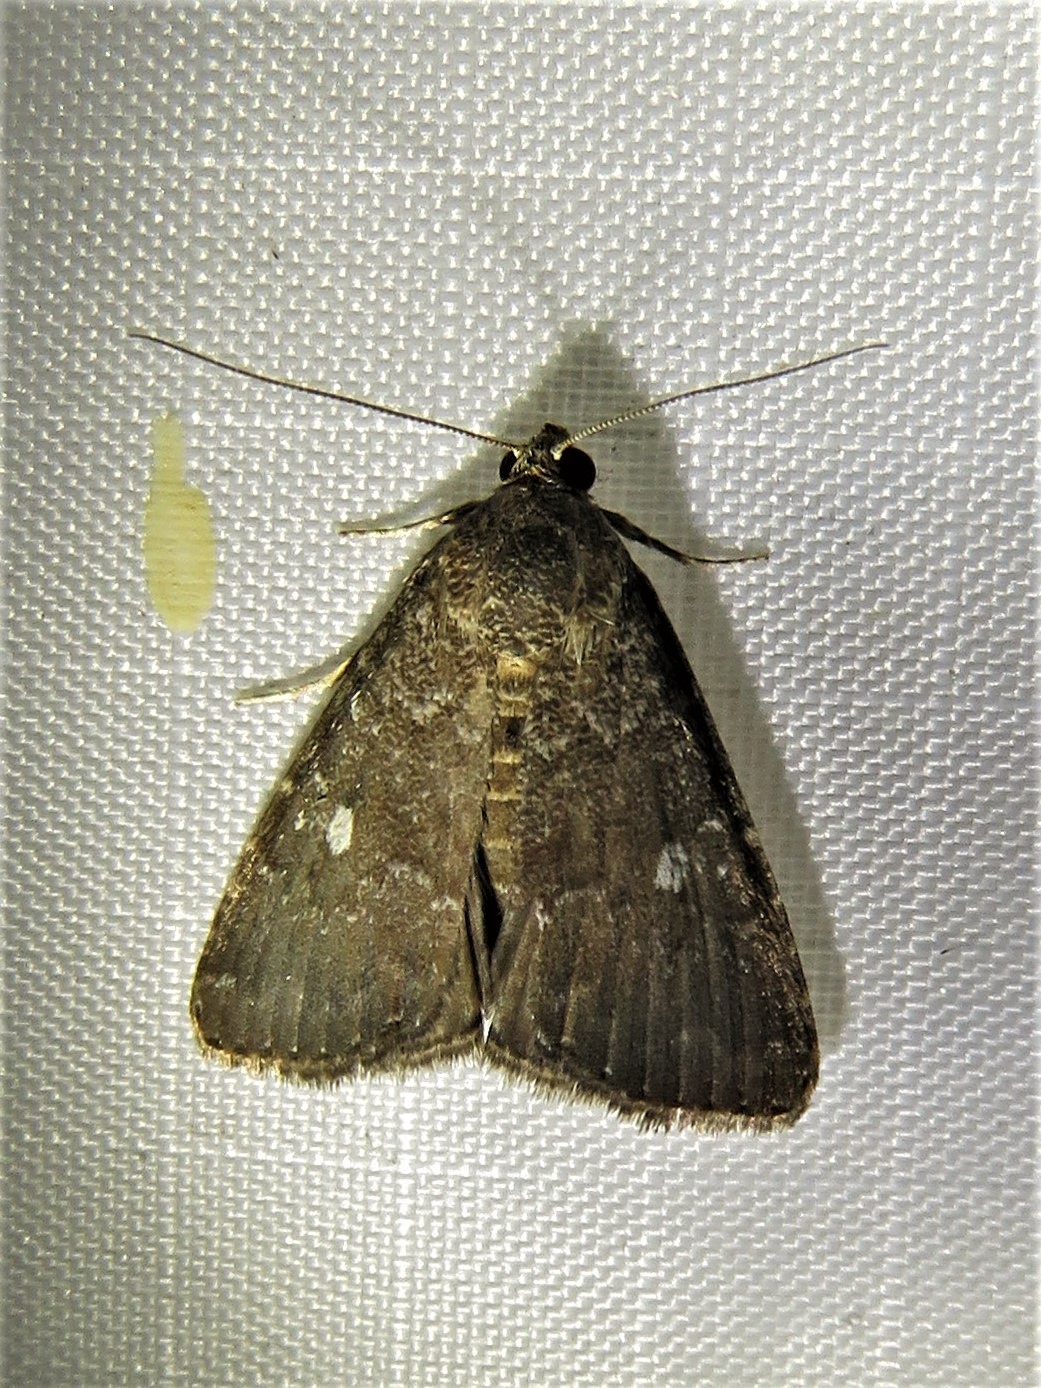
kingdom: Animalia
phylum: Arthropoda
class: Insecta
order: Lepidoptera
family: Noctuidae
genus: Amyna
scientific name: Amyna stricta
